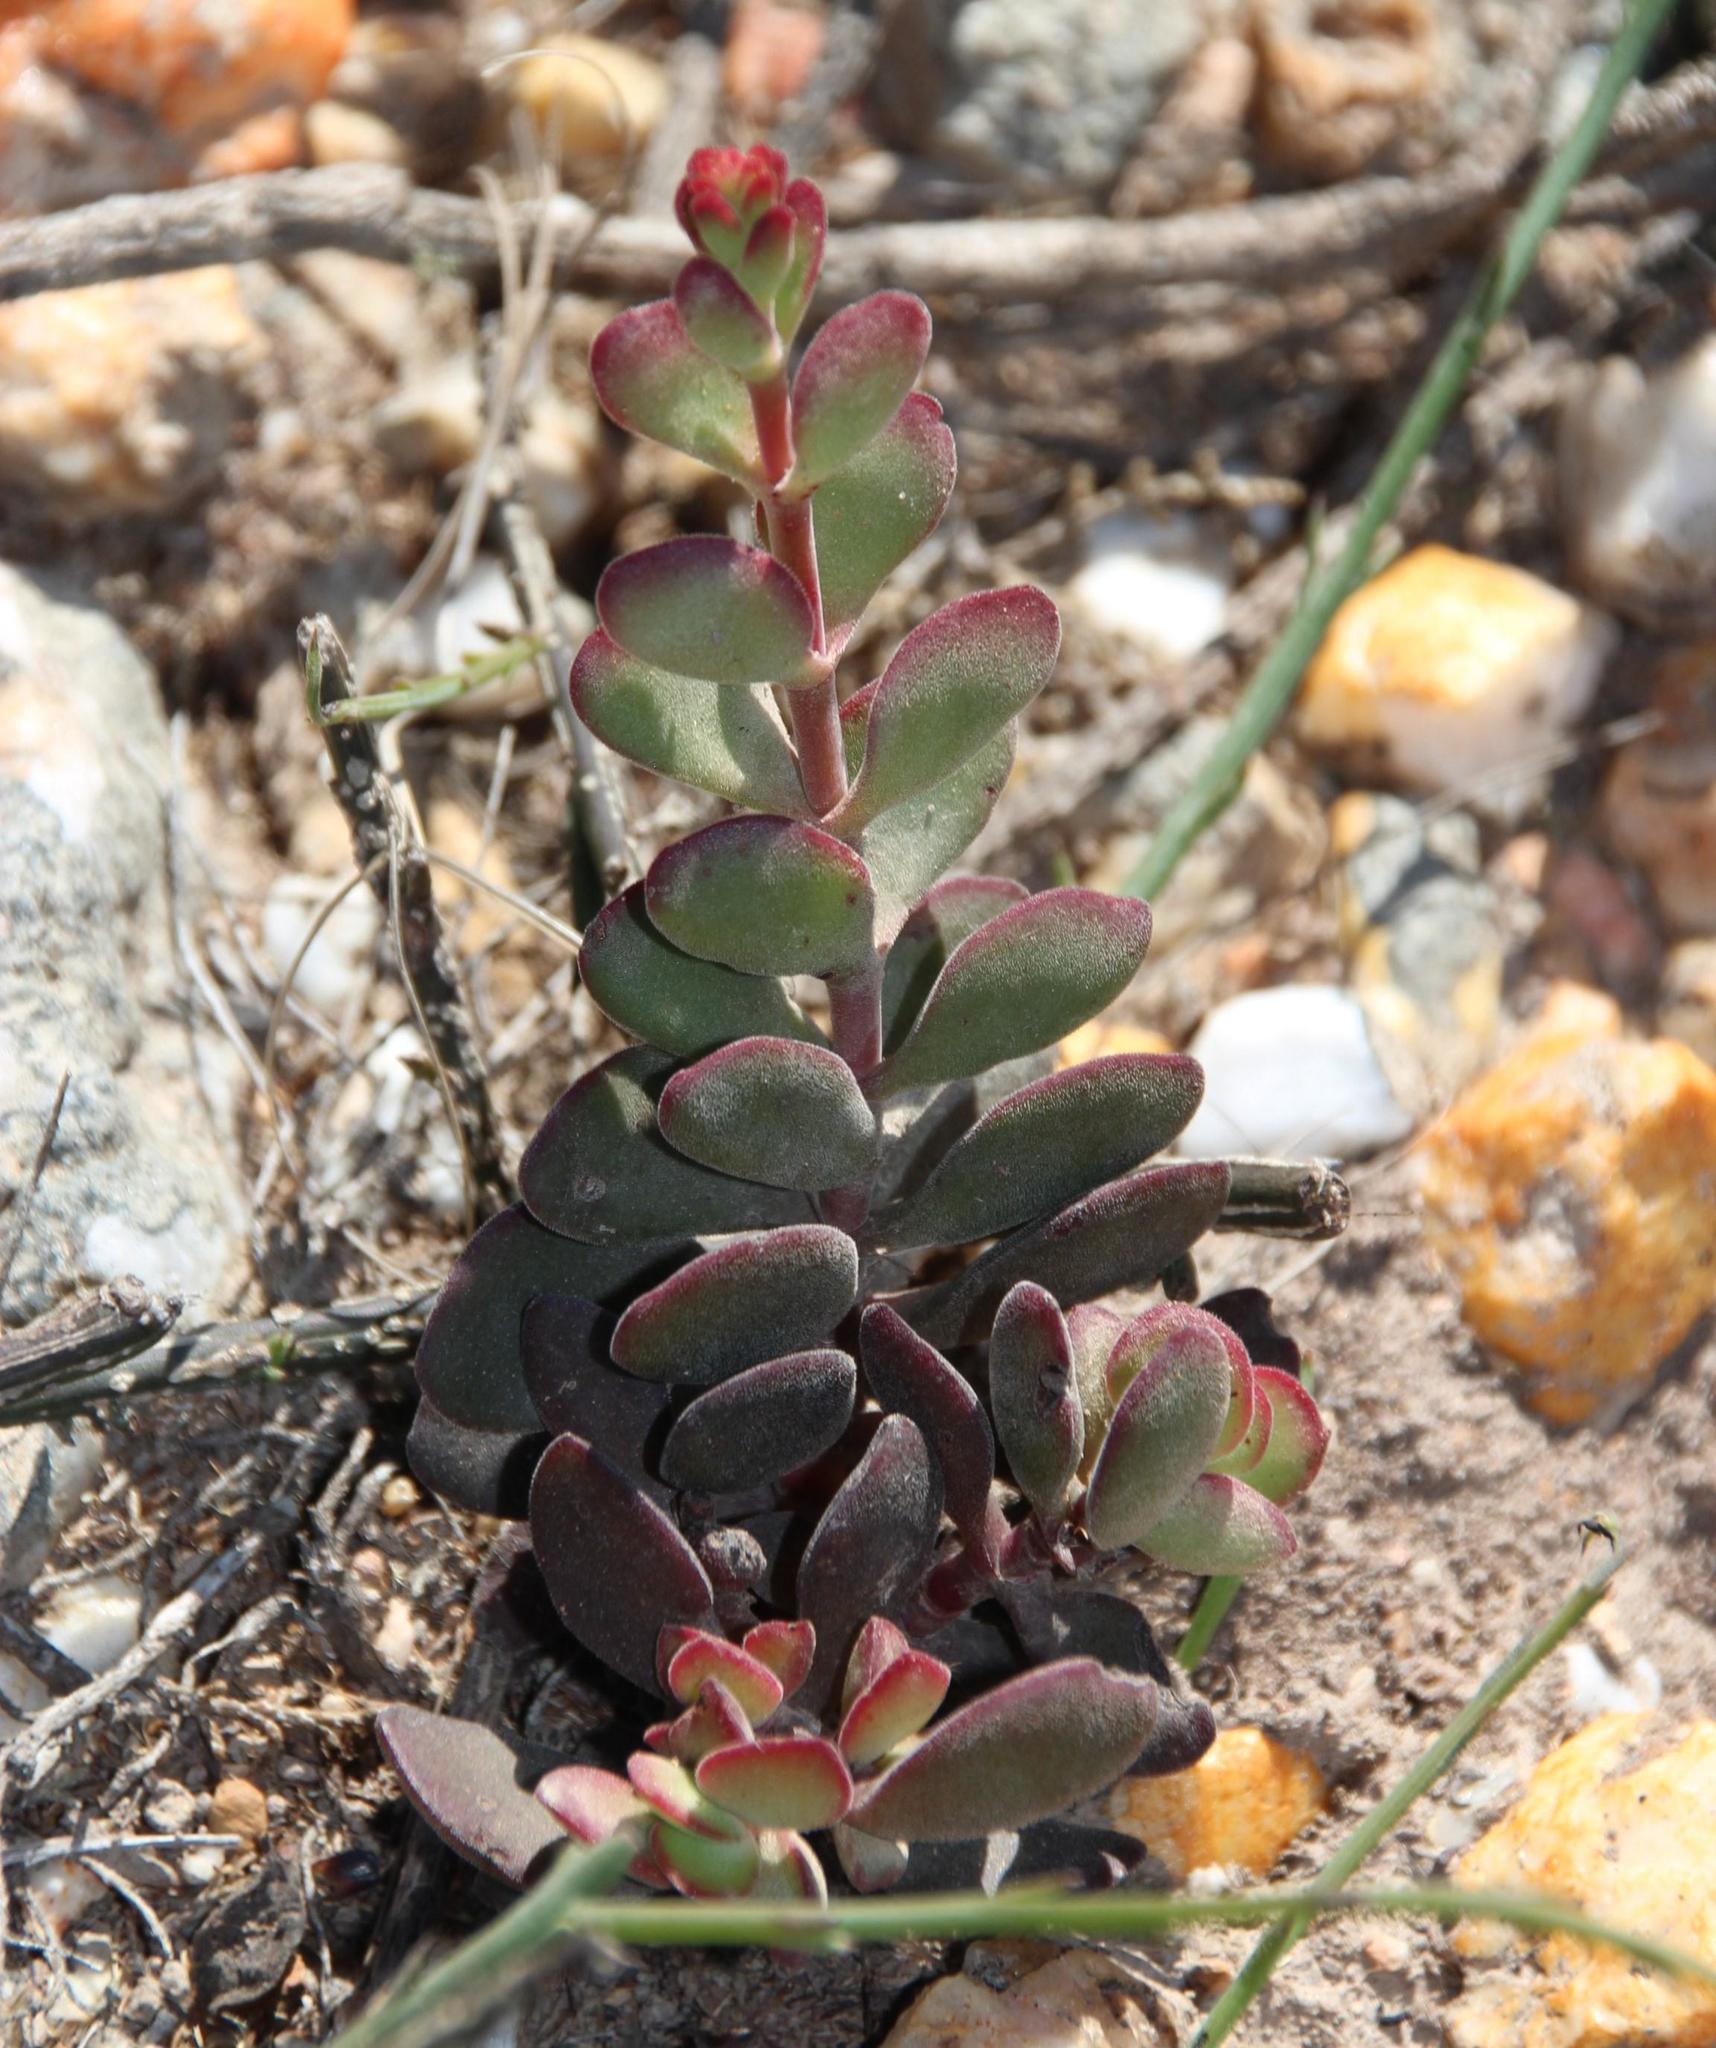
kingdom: Plantae
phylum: Tracheophyta
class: Magnoliopsida
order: Saxifragales
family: Crassulaceae
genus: Crassula
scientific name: Crassula atropurpurea
